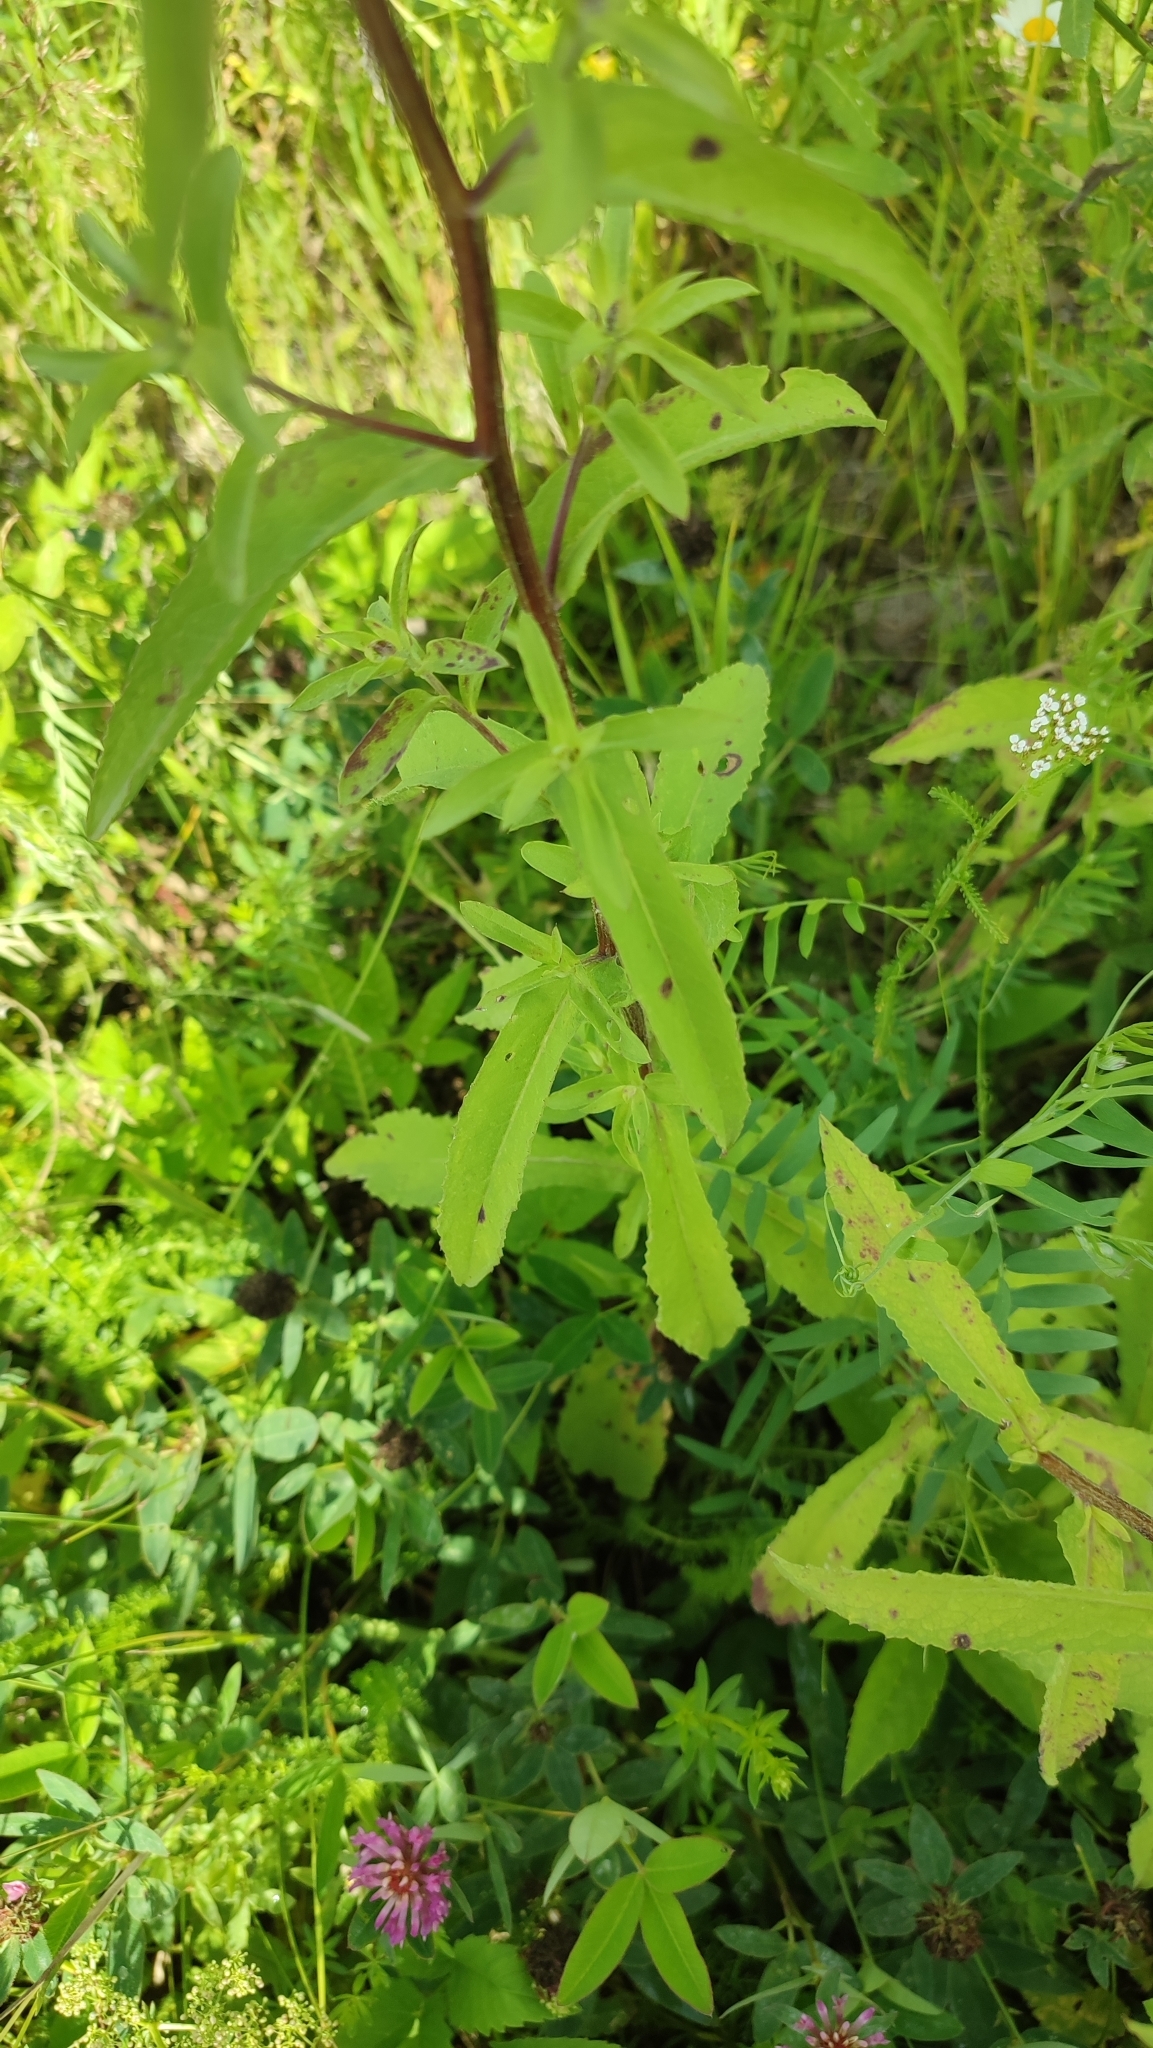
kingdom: Plantae
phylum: Tracheophyta
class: Magnoliopsida
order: Asterales
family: Asteraceae
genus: Centaurea
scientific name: Centaurea phrygia
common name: Wig knapweed
